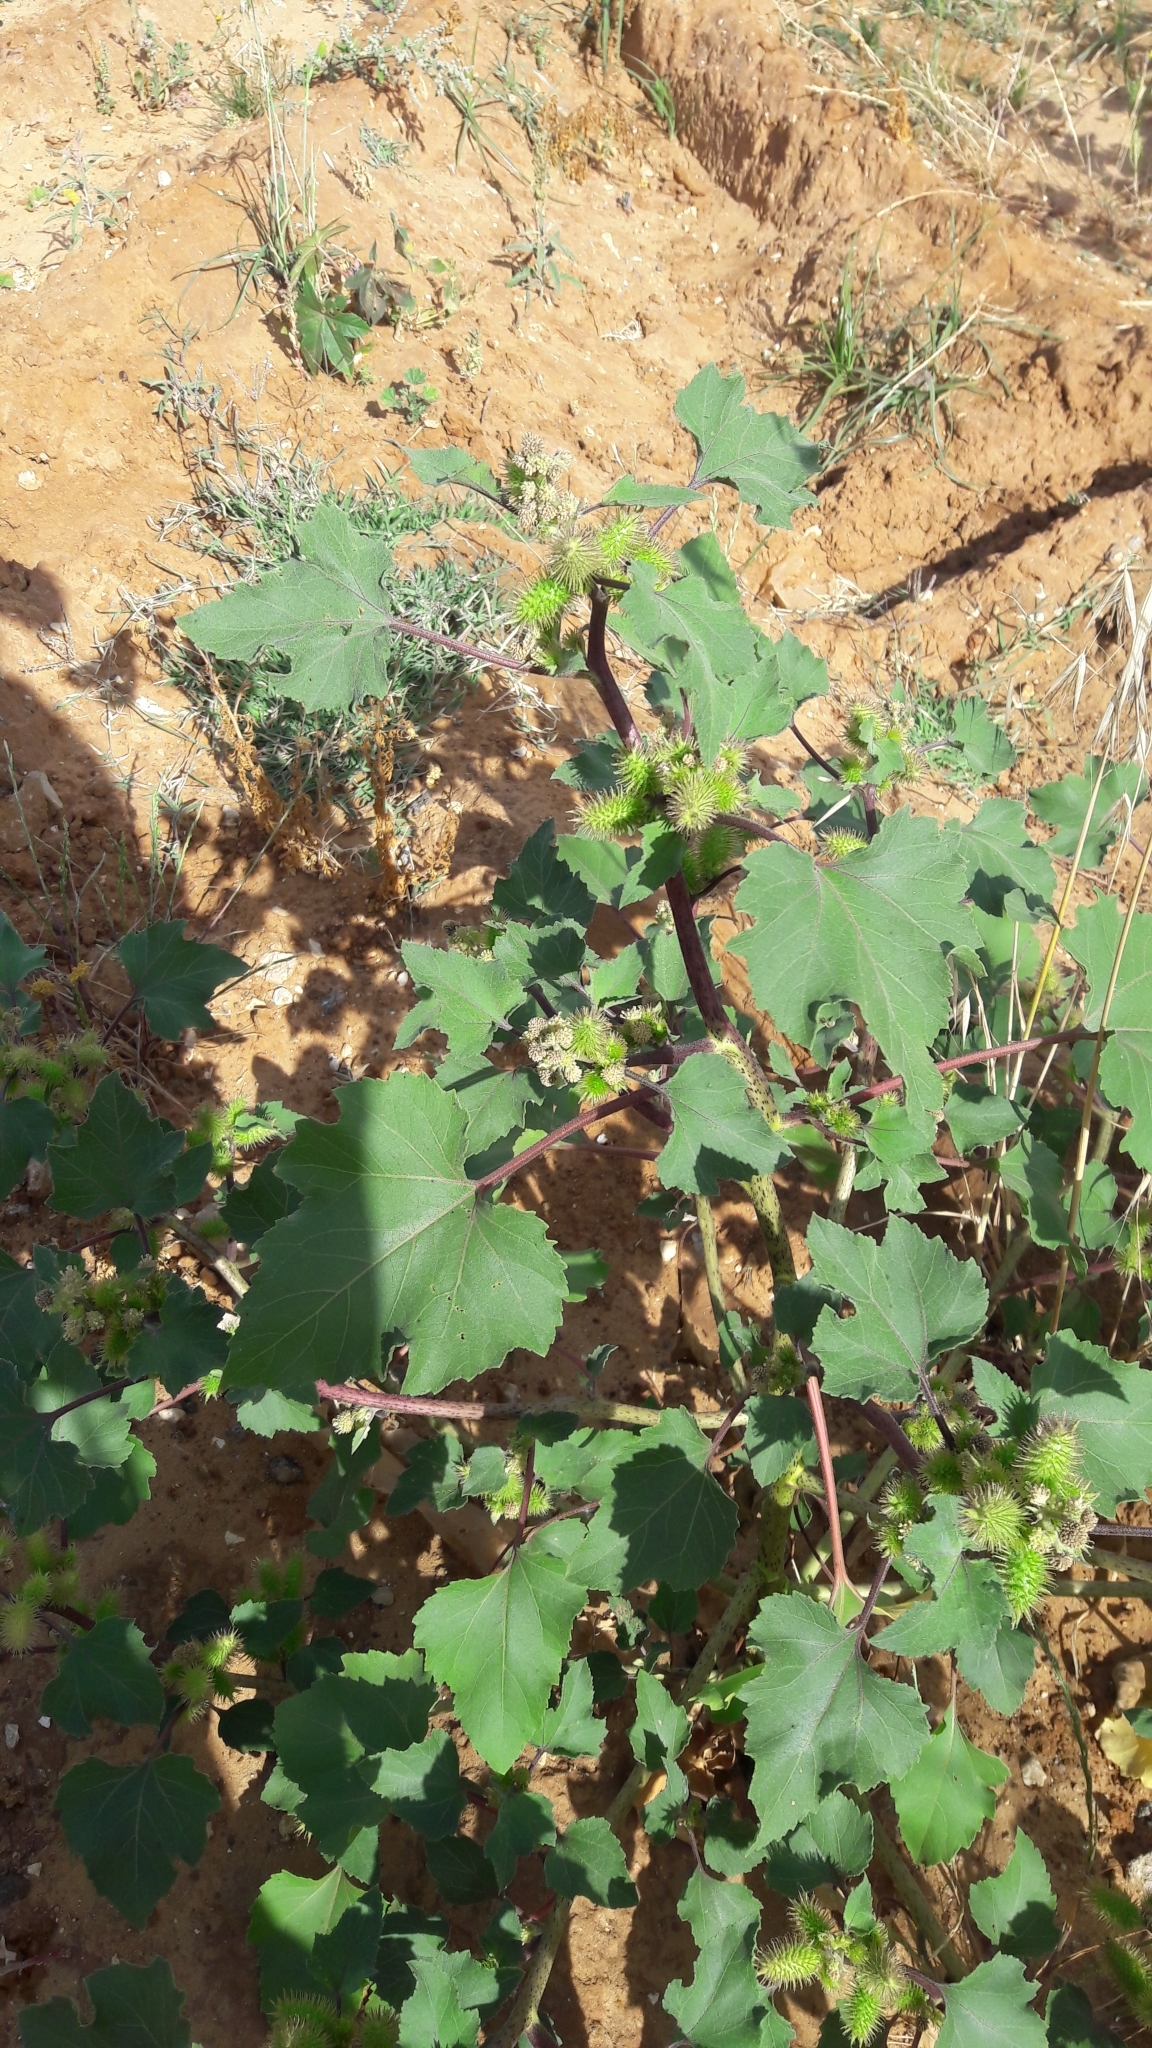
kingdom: Plantae
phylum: Tracheophyta
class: Magnoliopsida
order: Asterales
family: Asteraceae
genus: Xanthium
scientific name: Xanthium strumarium
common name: Rough cocklebur
